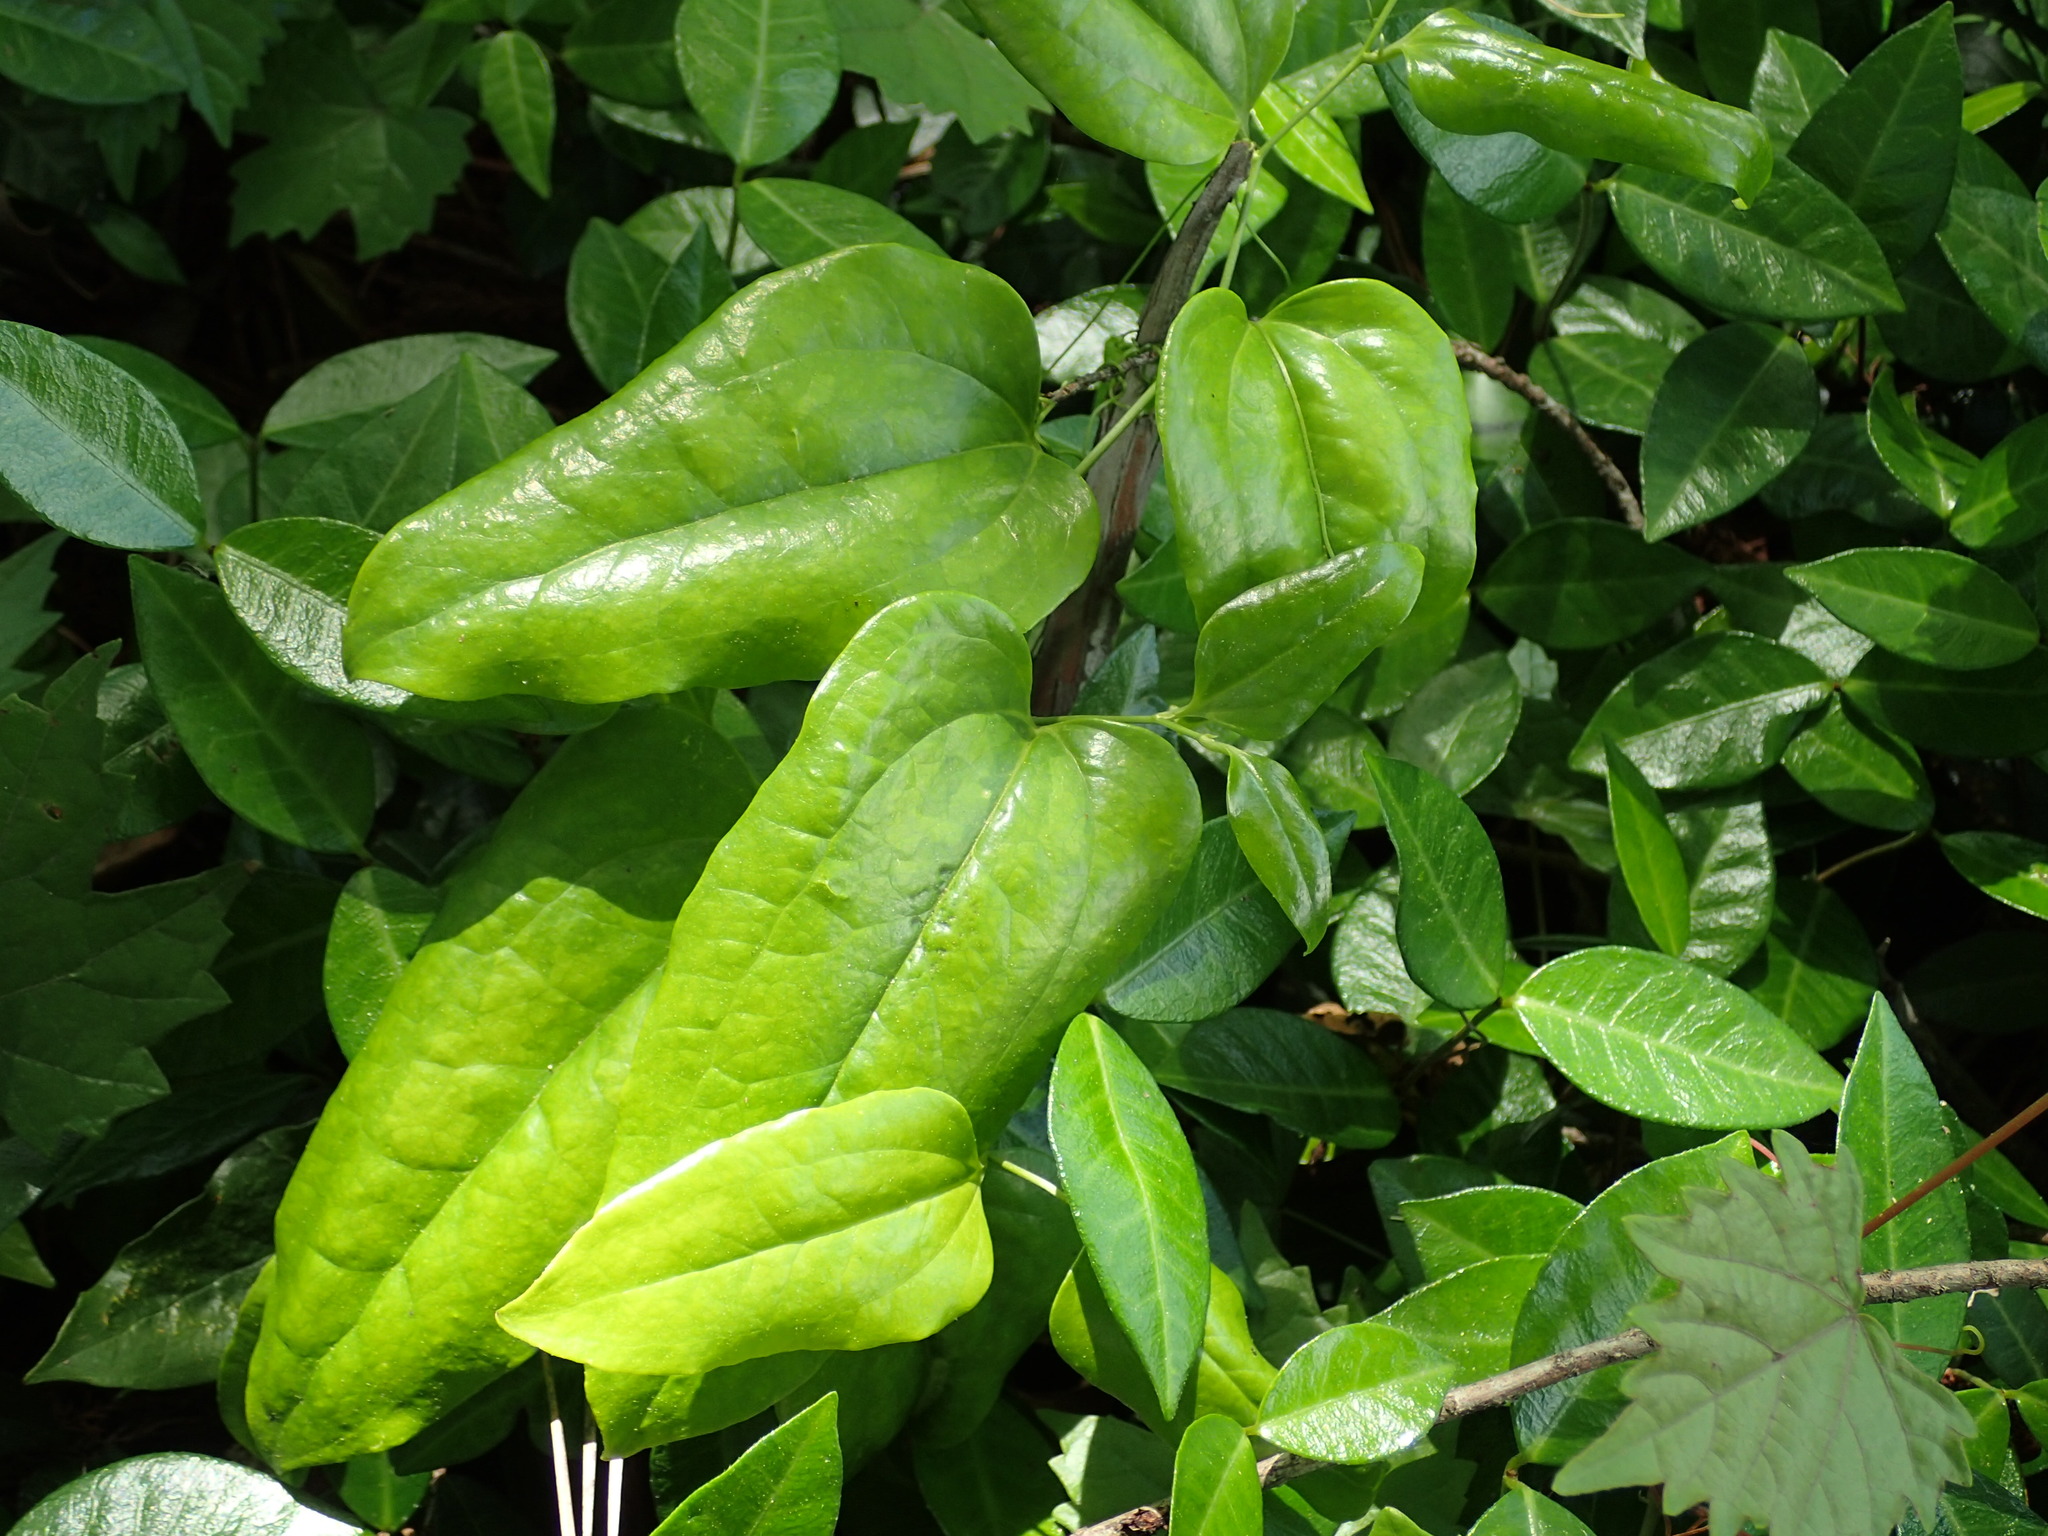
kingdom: Plantae
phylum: Tracheophyta
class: Liliopsida
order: Liliales
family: Smilacaceae
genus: Smilax
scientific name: Smilax glauca
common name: Cat greenbrier
